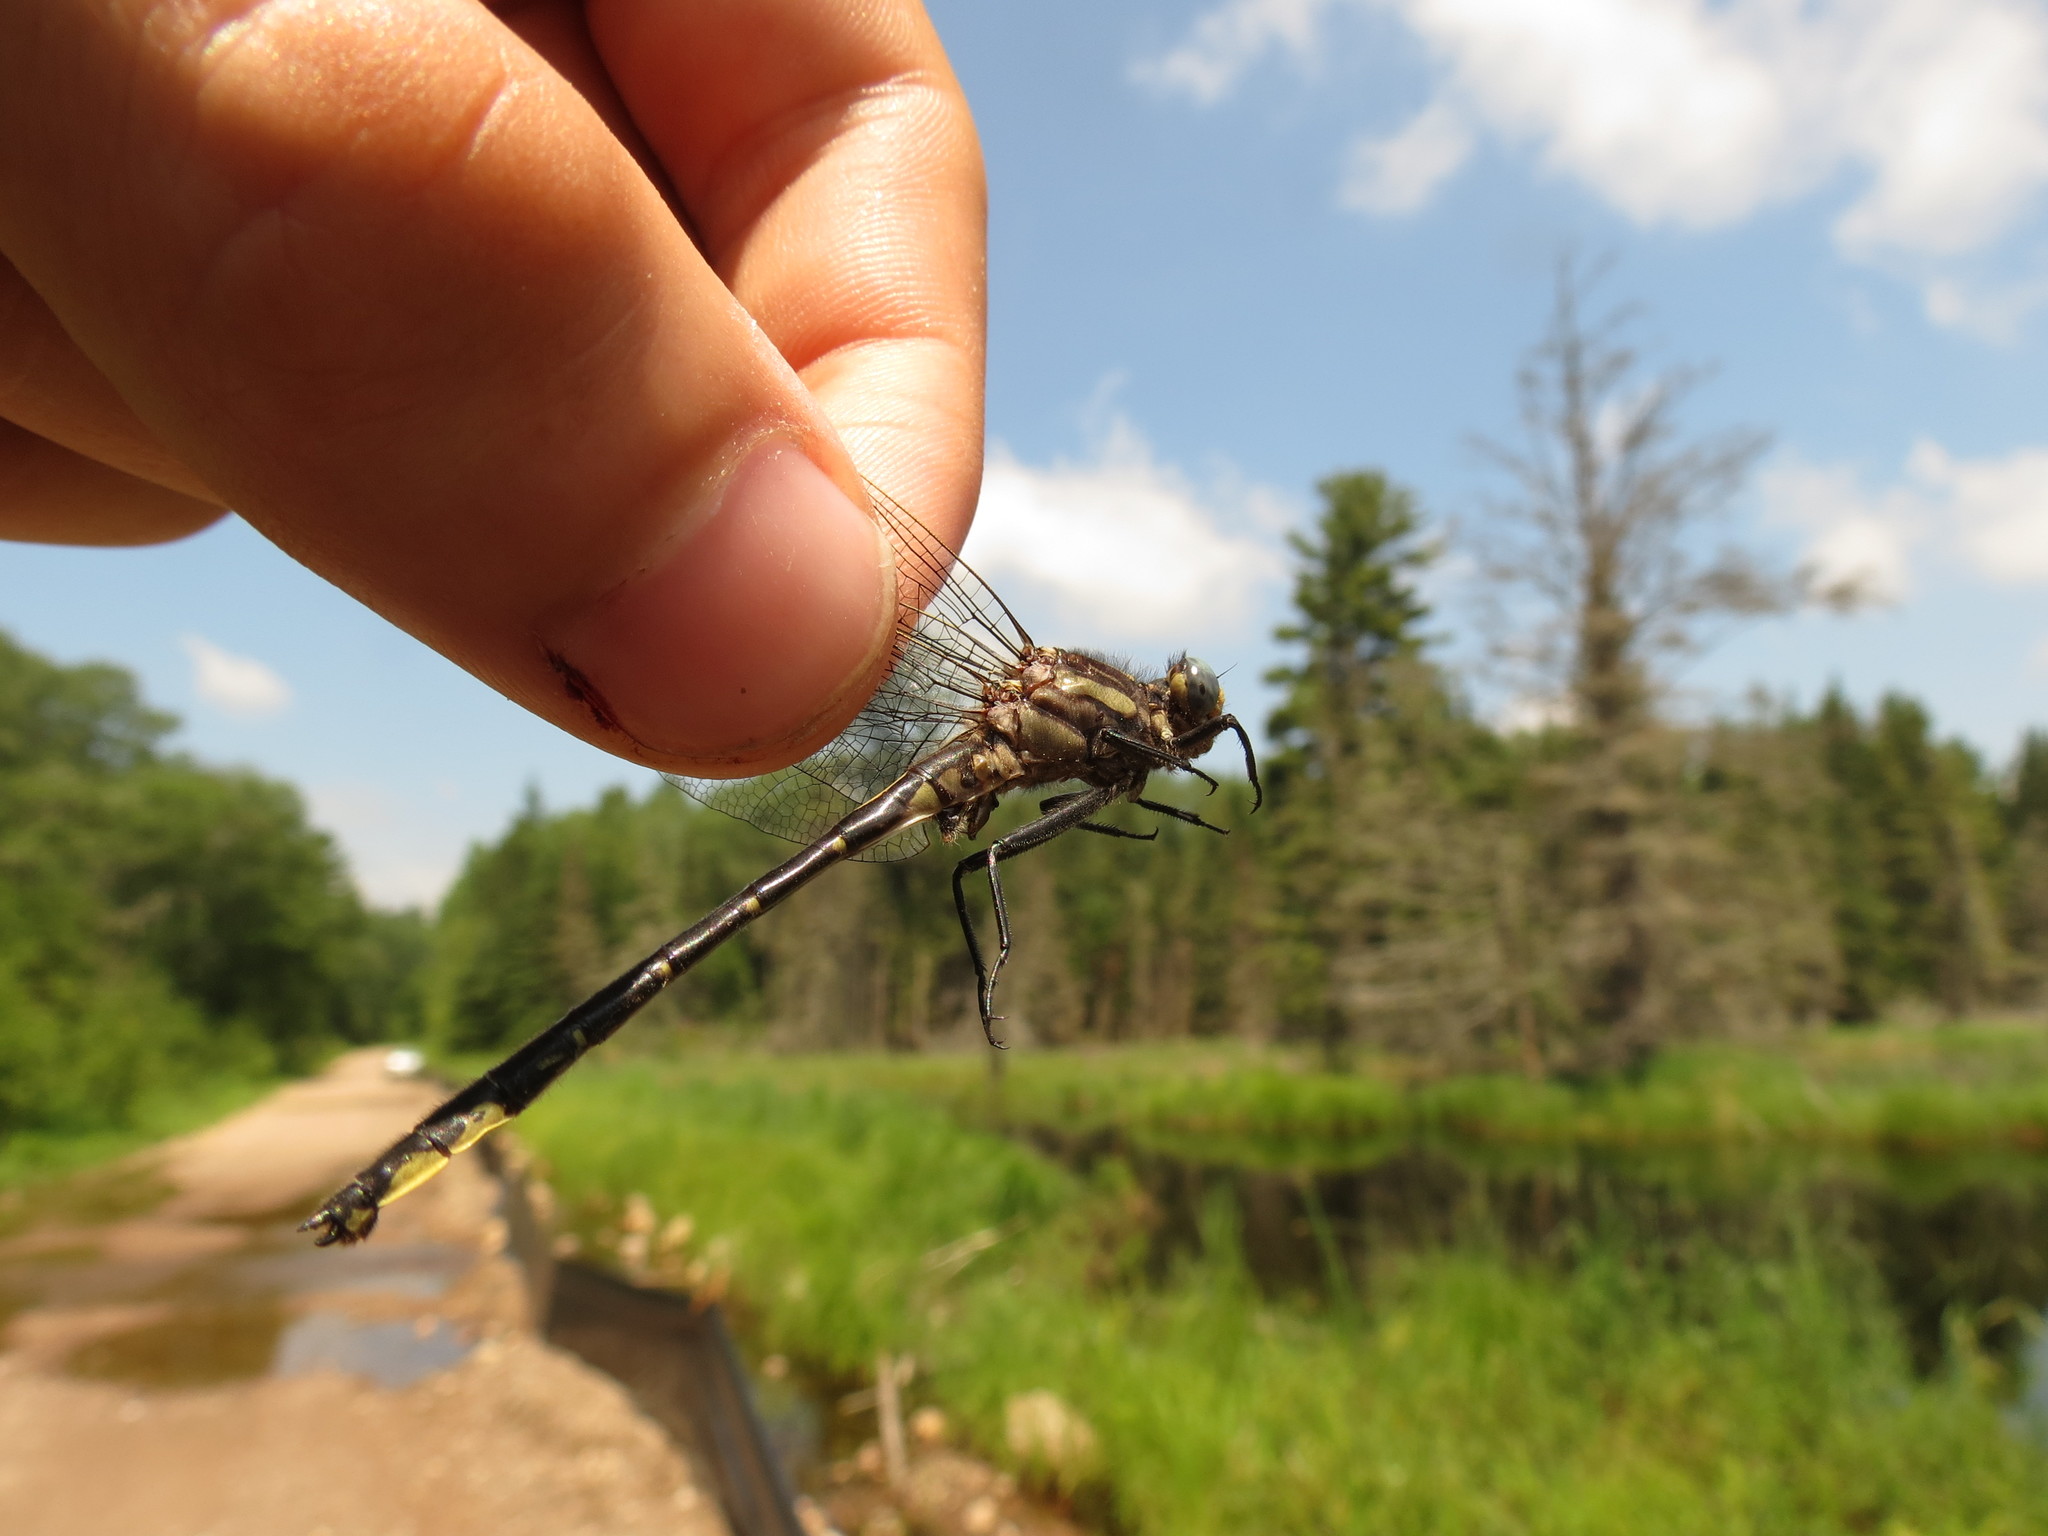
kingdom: Animalia
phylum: Arthropoda
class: Insecta
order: Odonata
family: Gomphidae
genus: Phanogomphus
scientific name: Phanogomphus borealis
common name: Beaverpond clubtail
